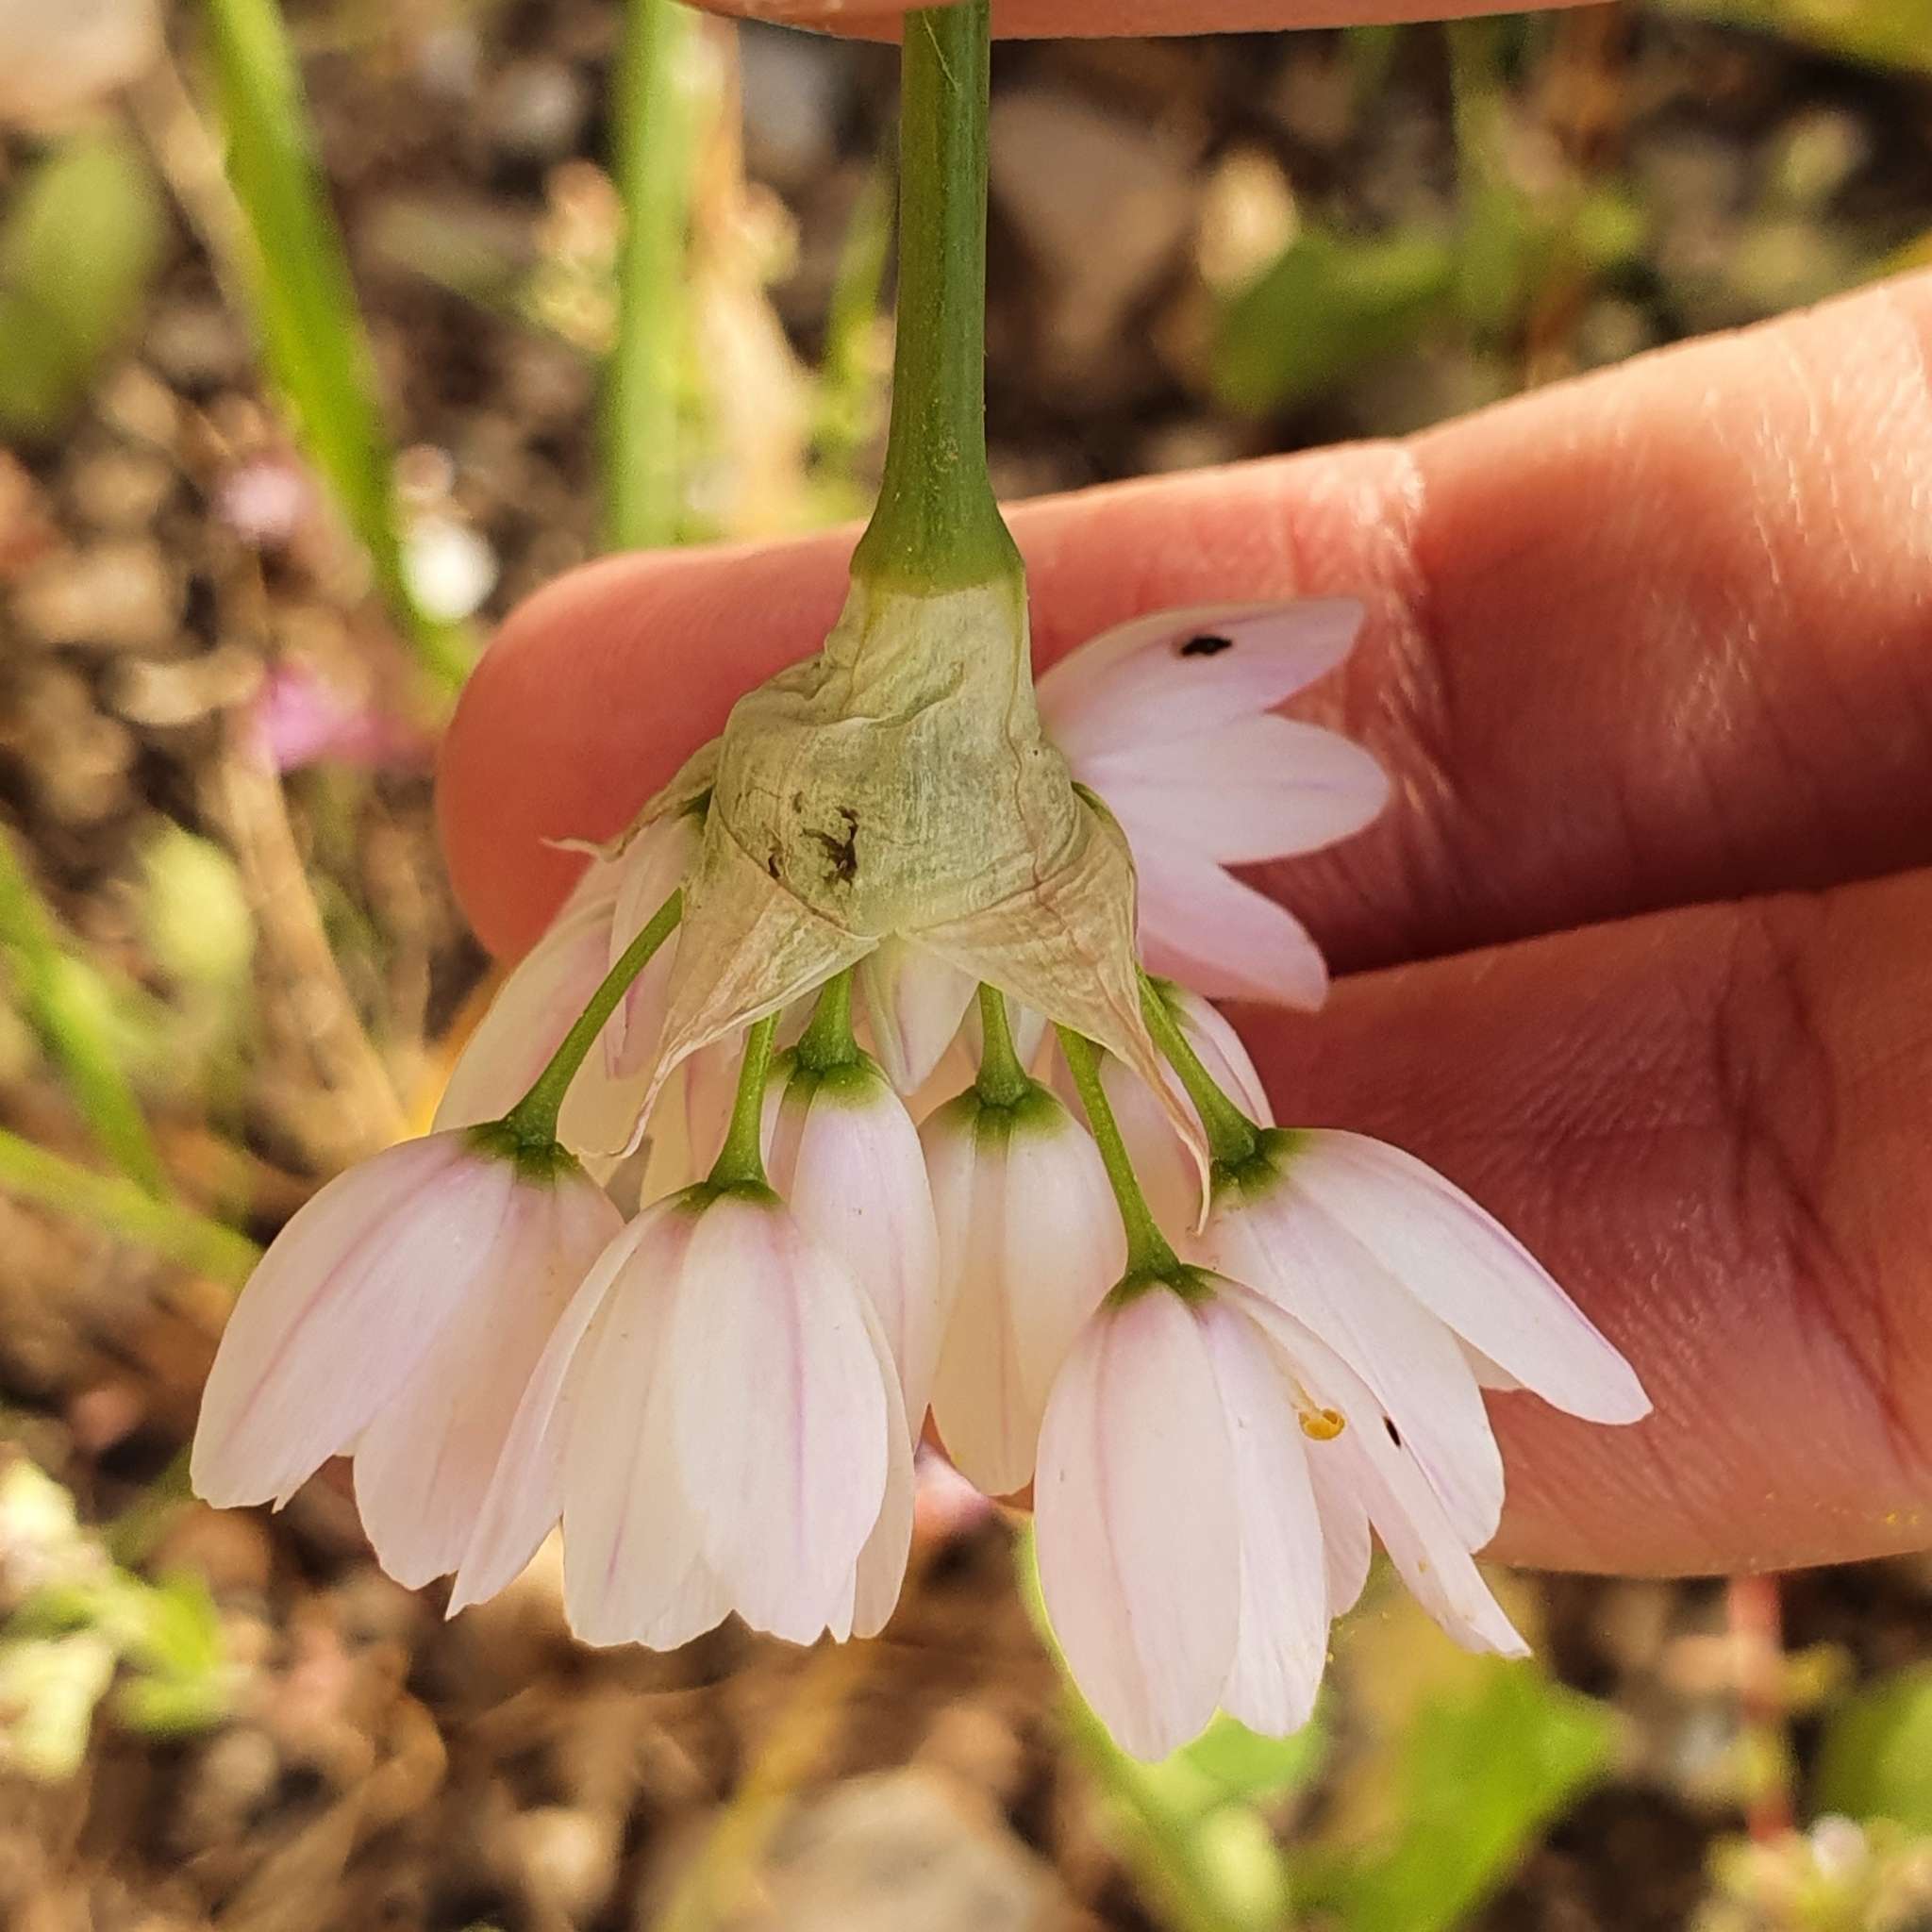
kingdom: Plantae
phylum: Tracheophyta
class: Liliopsida
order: Asparagales
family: Amaryllidaceae
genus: Allium
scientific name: Allium roseum
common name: Rosy garlic
